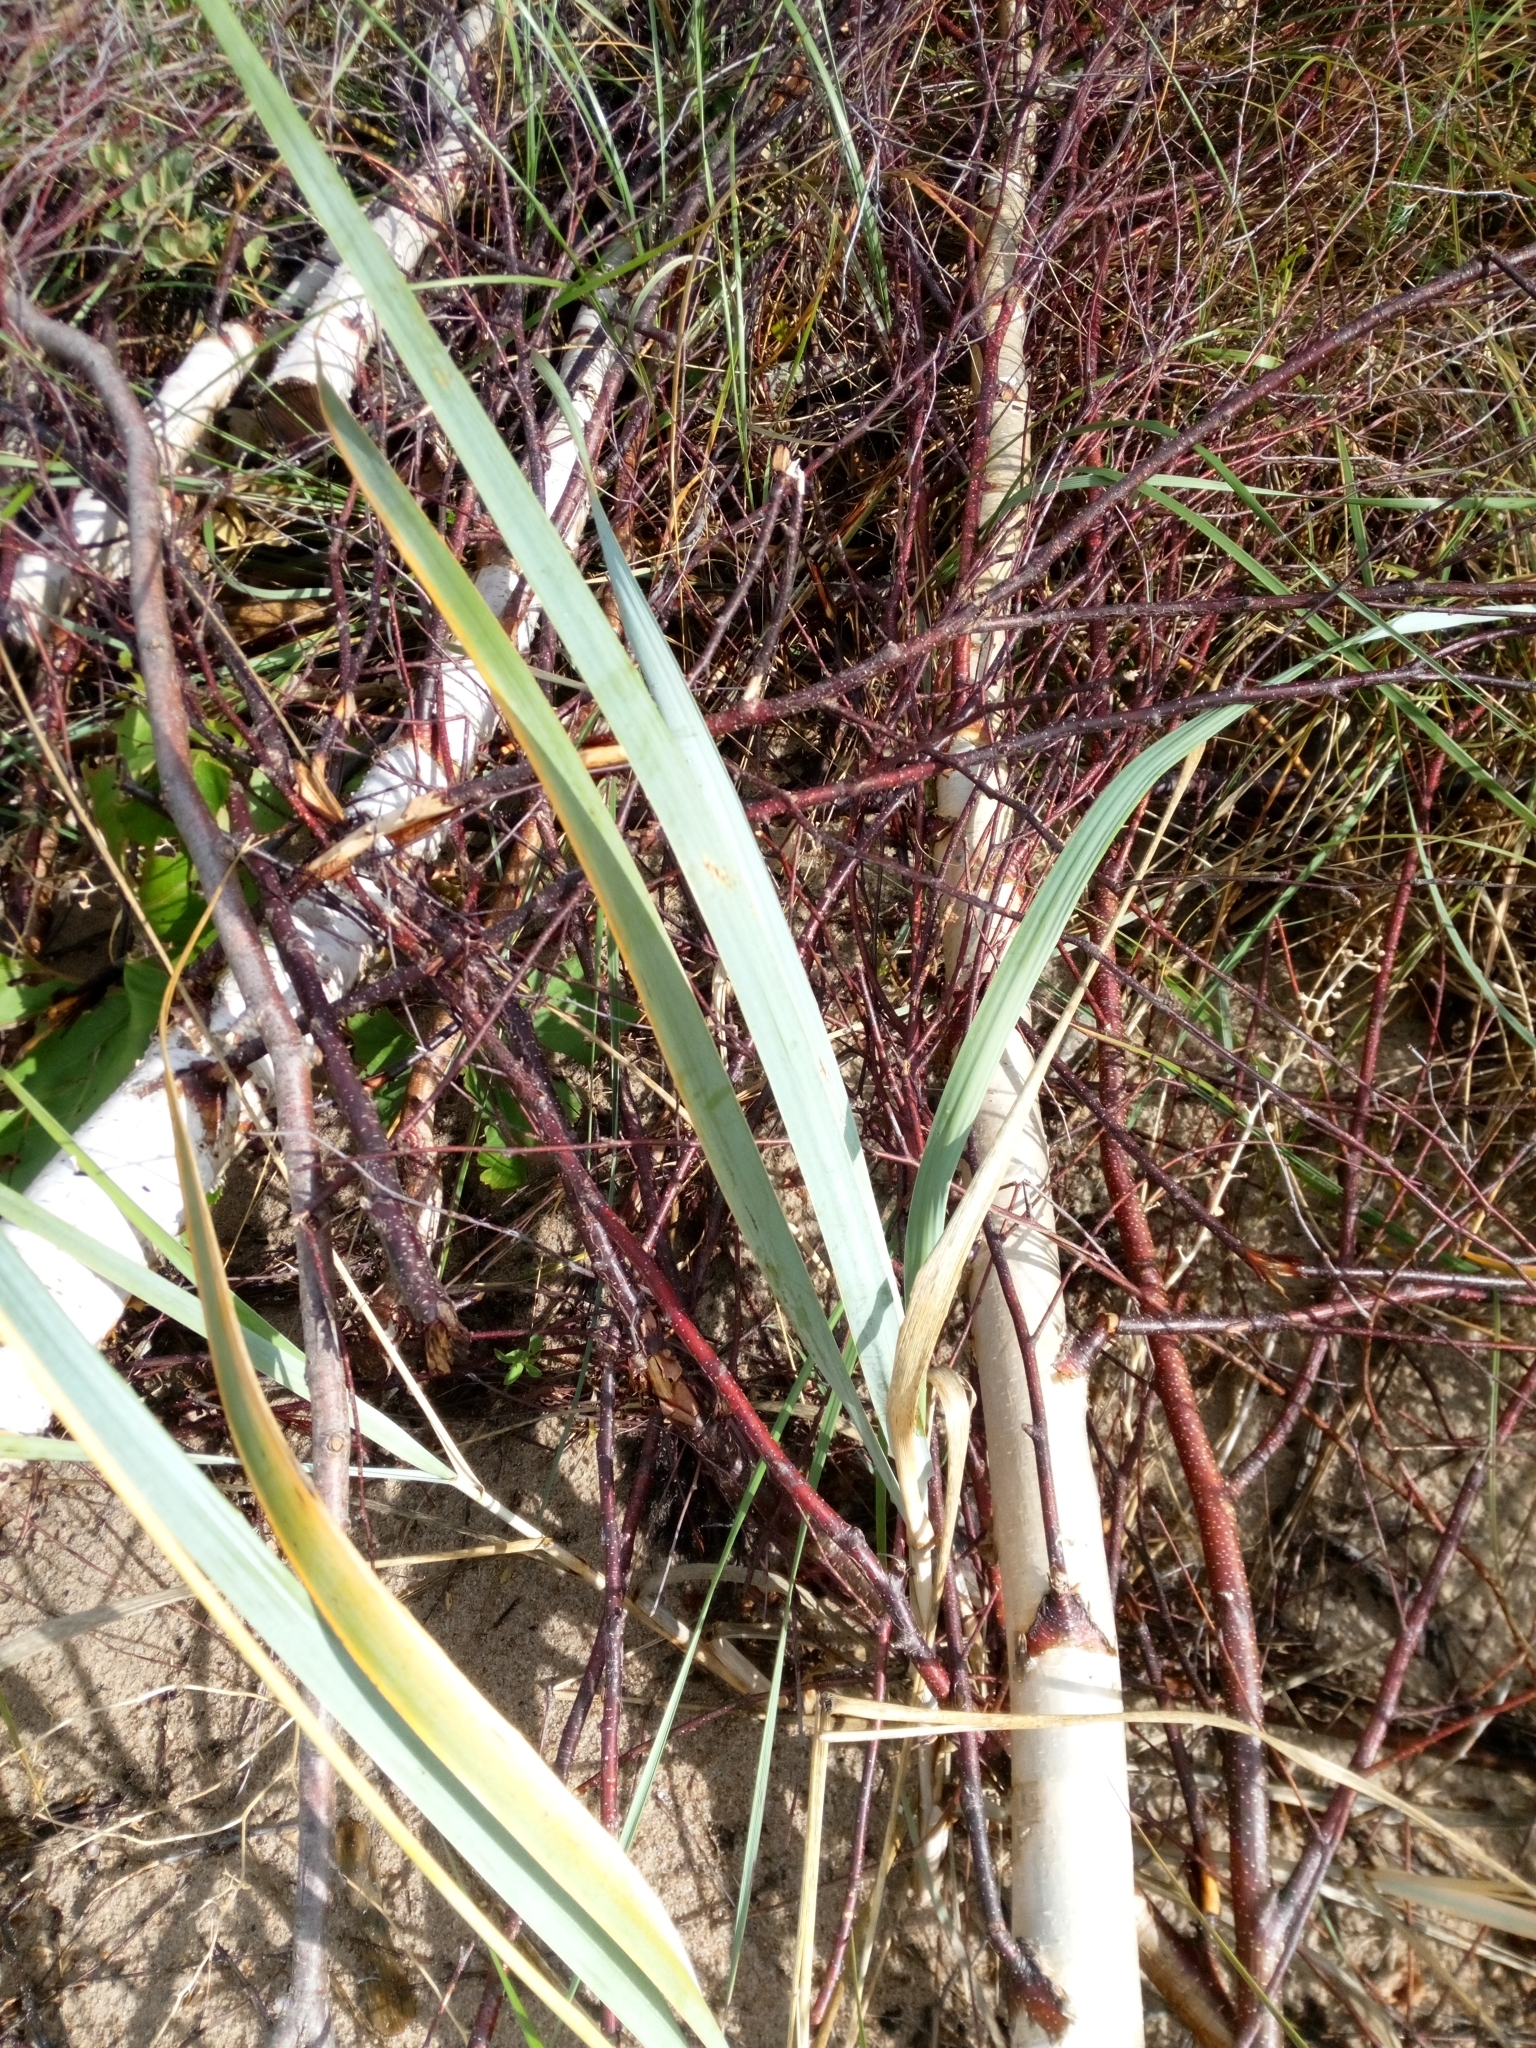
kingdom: Plantae
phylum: Tracheophyta
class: Liliopsida
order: Poales
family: Poaceae
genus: Leymus
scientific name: Leymus arenarius
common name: Lyme-grass
